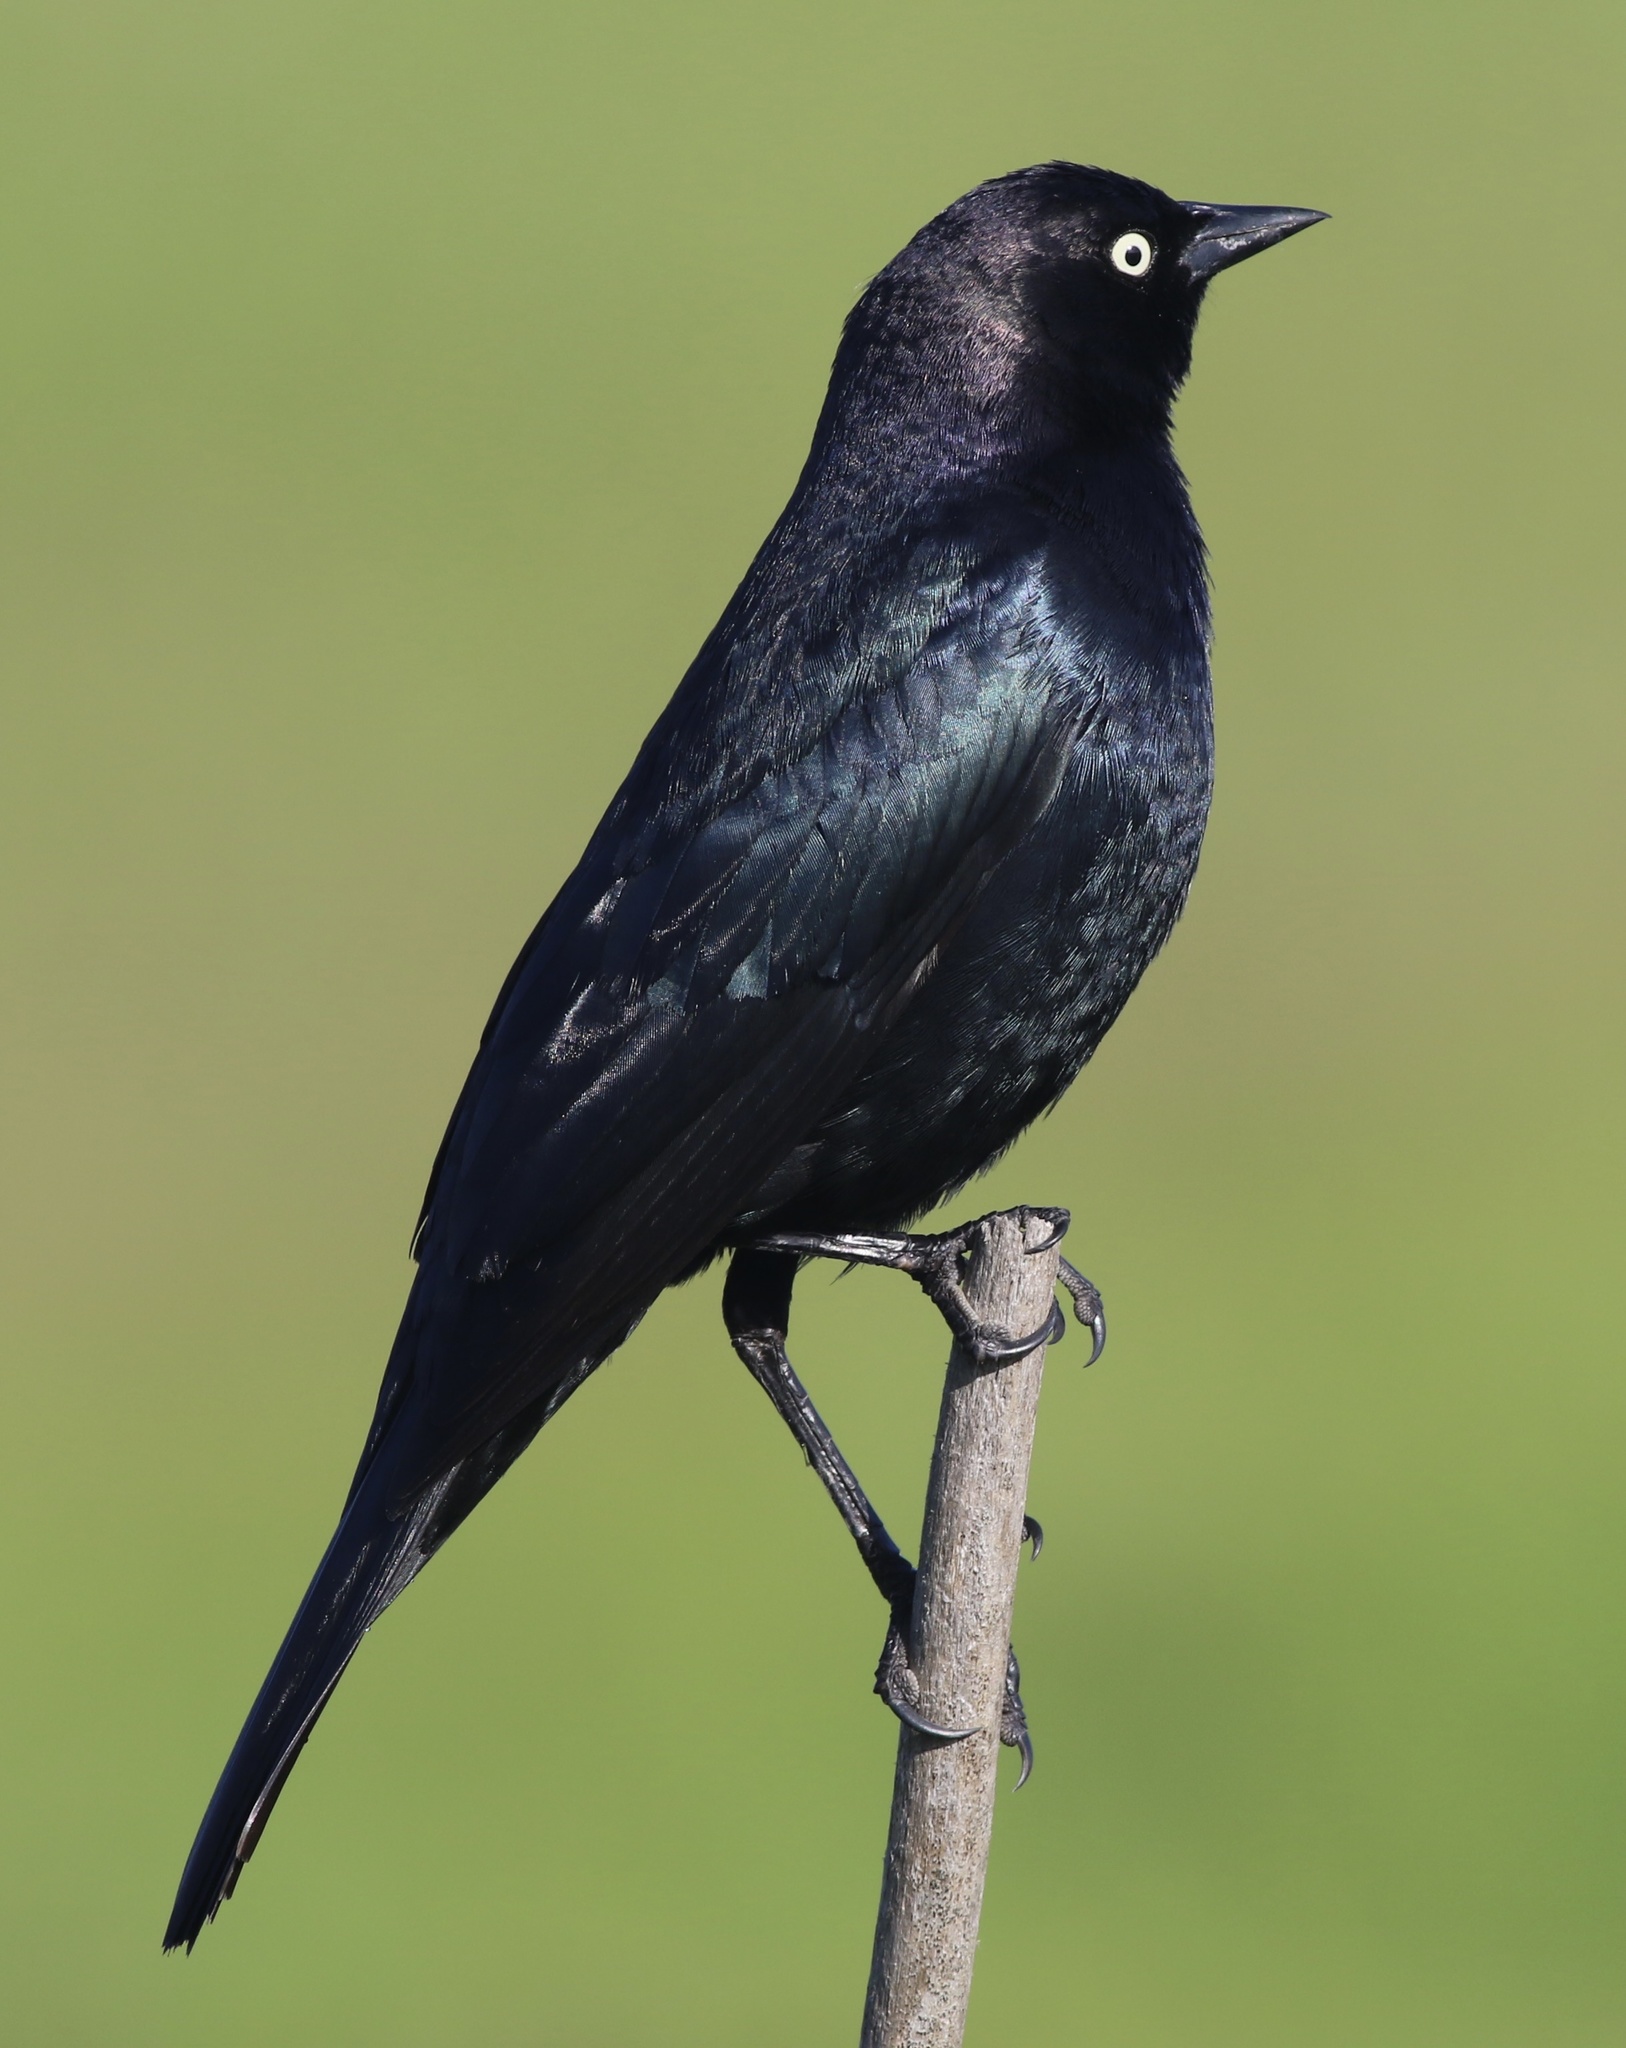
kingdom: Animalia
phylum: Chordata
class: Aves
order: Passeriformes
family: Icteridae
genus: Euphagus
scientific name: Euphagus cyanocephalus
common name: Brewer's blackbird
